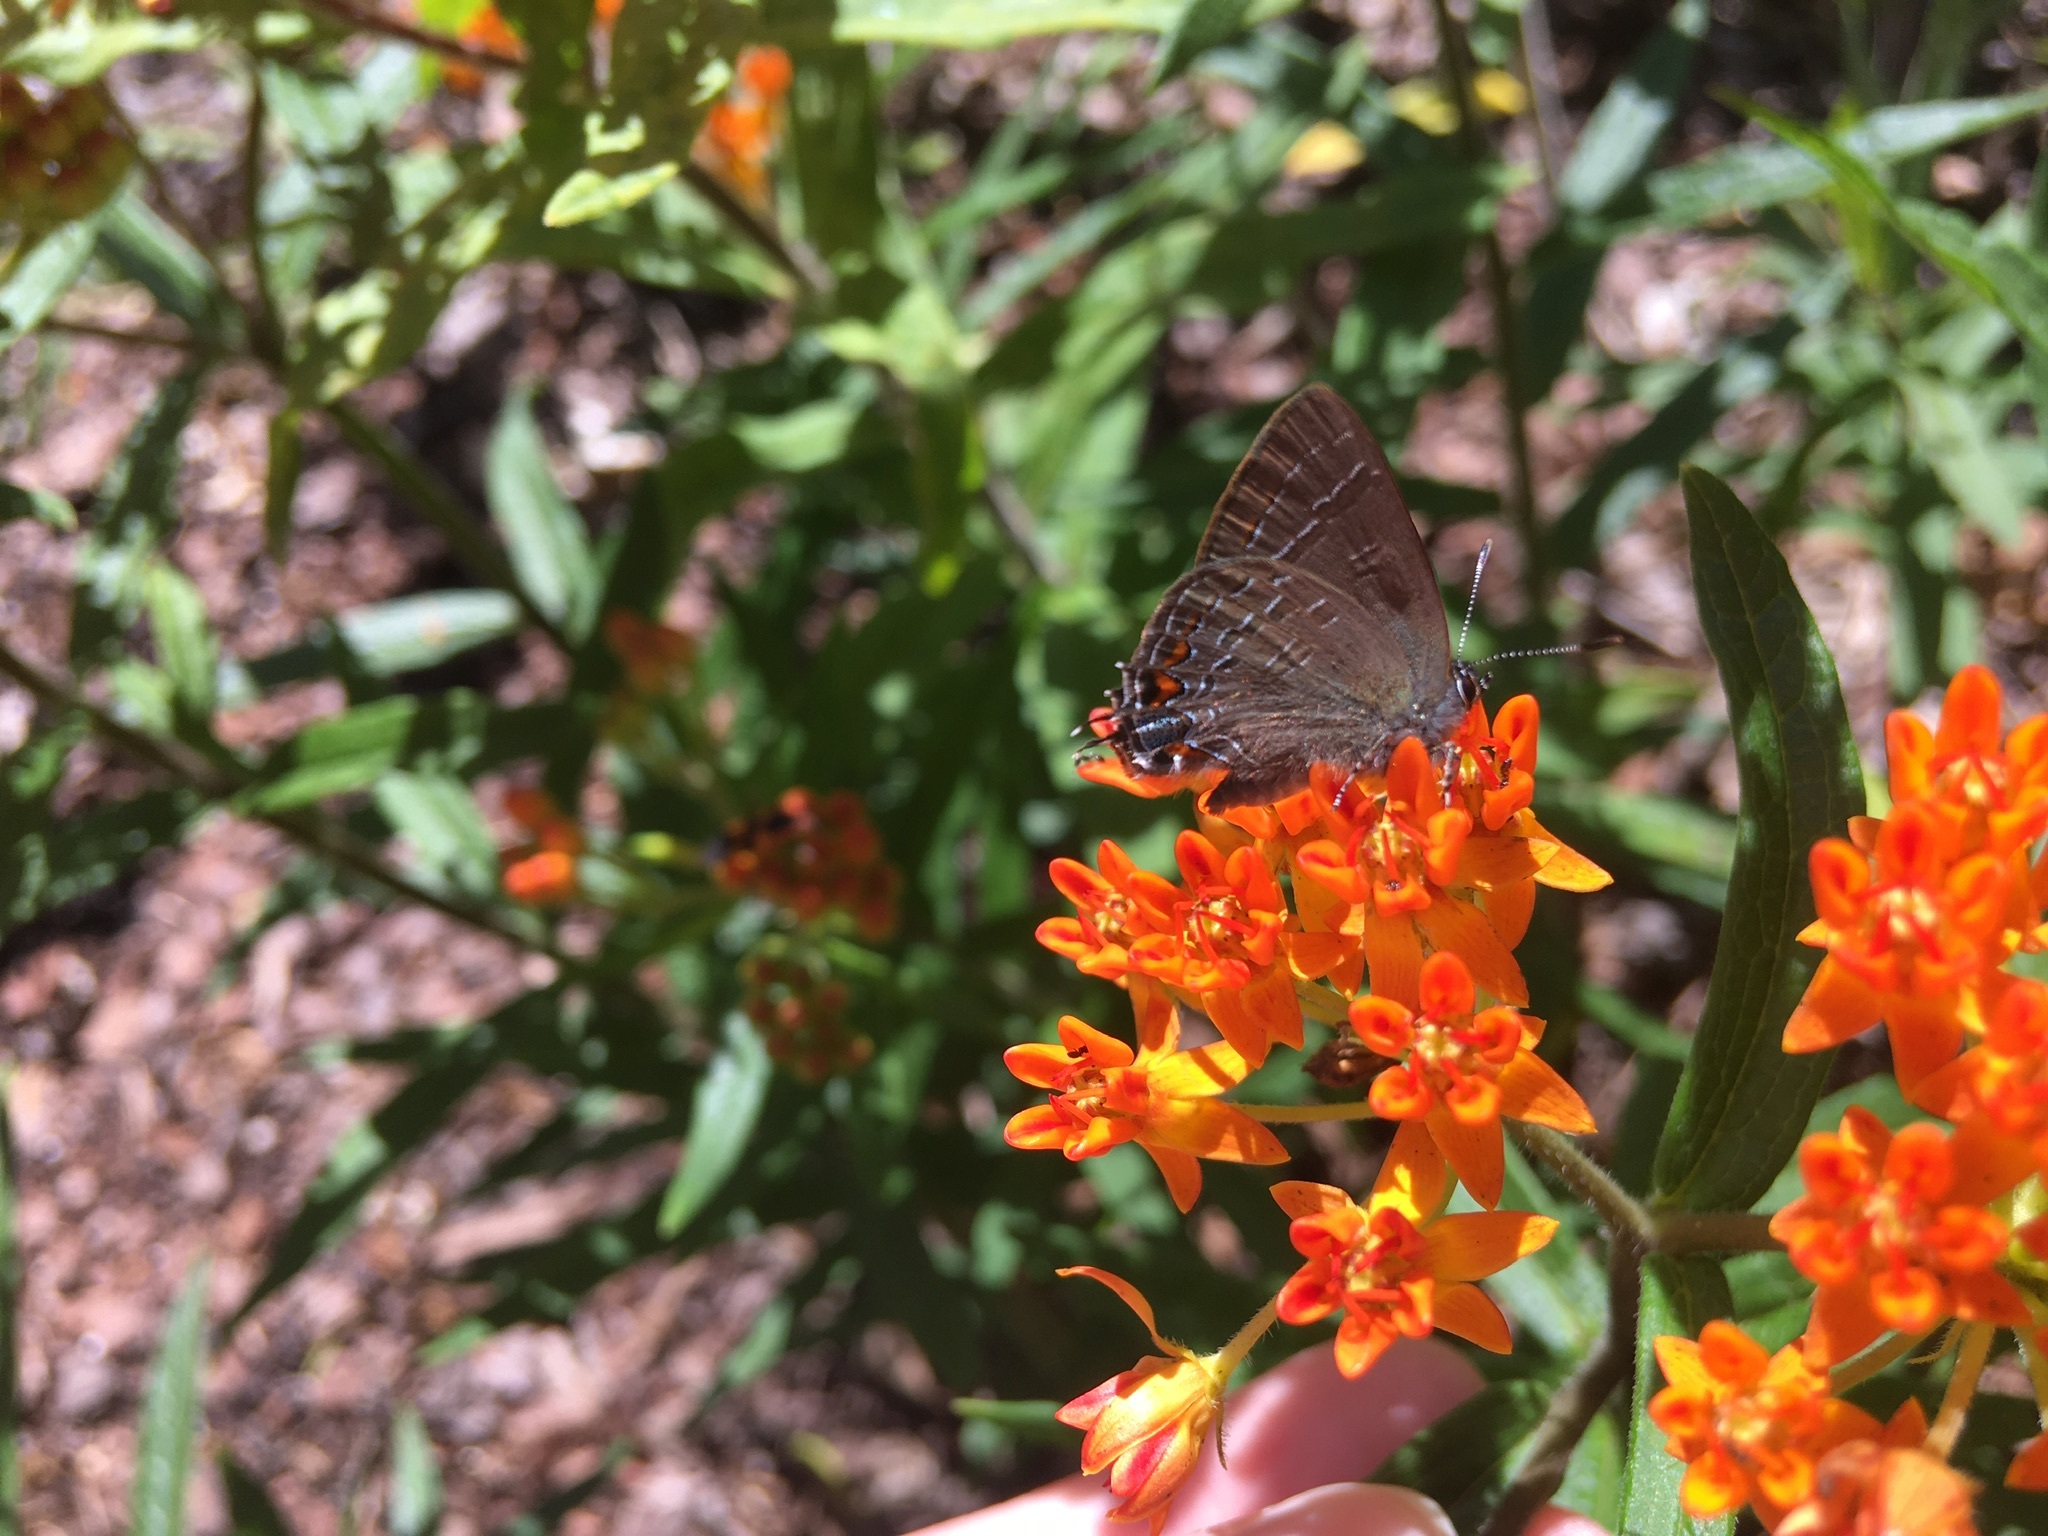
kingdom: Animalia
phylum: Arthropoda
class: Insecta
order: Lepidoptera
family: Lycaenidae
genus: Satyrium
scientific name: Satyrium calanus
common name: Banded hairstreak
